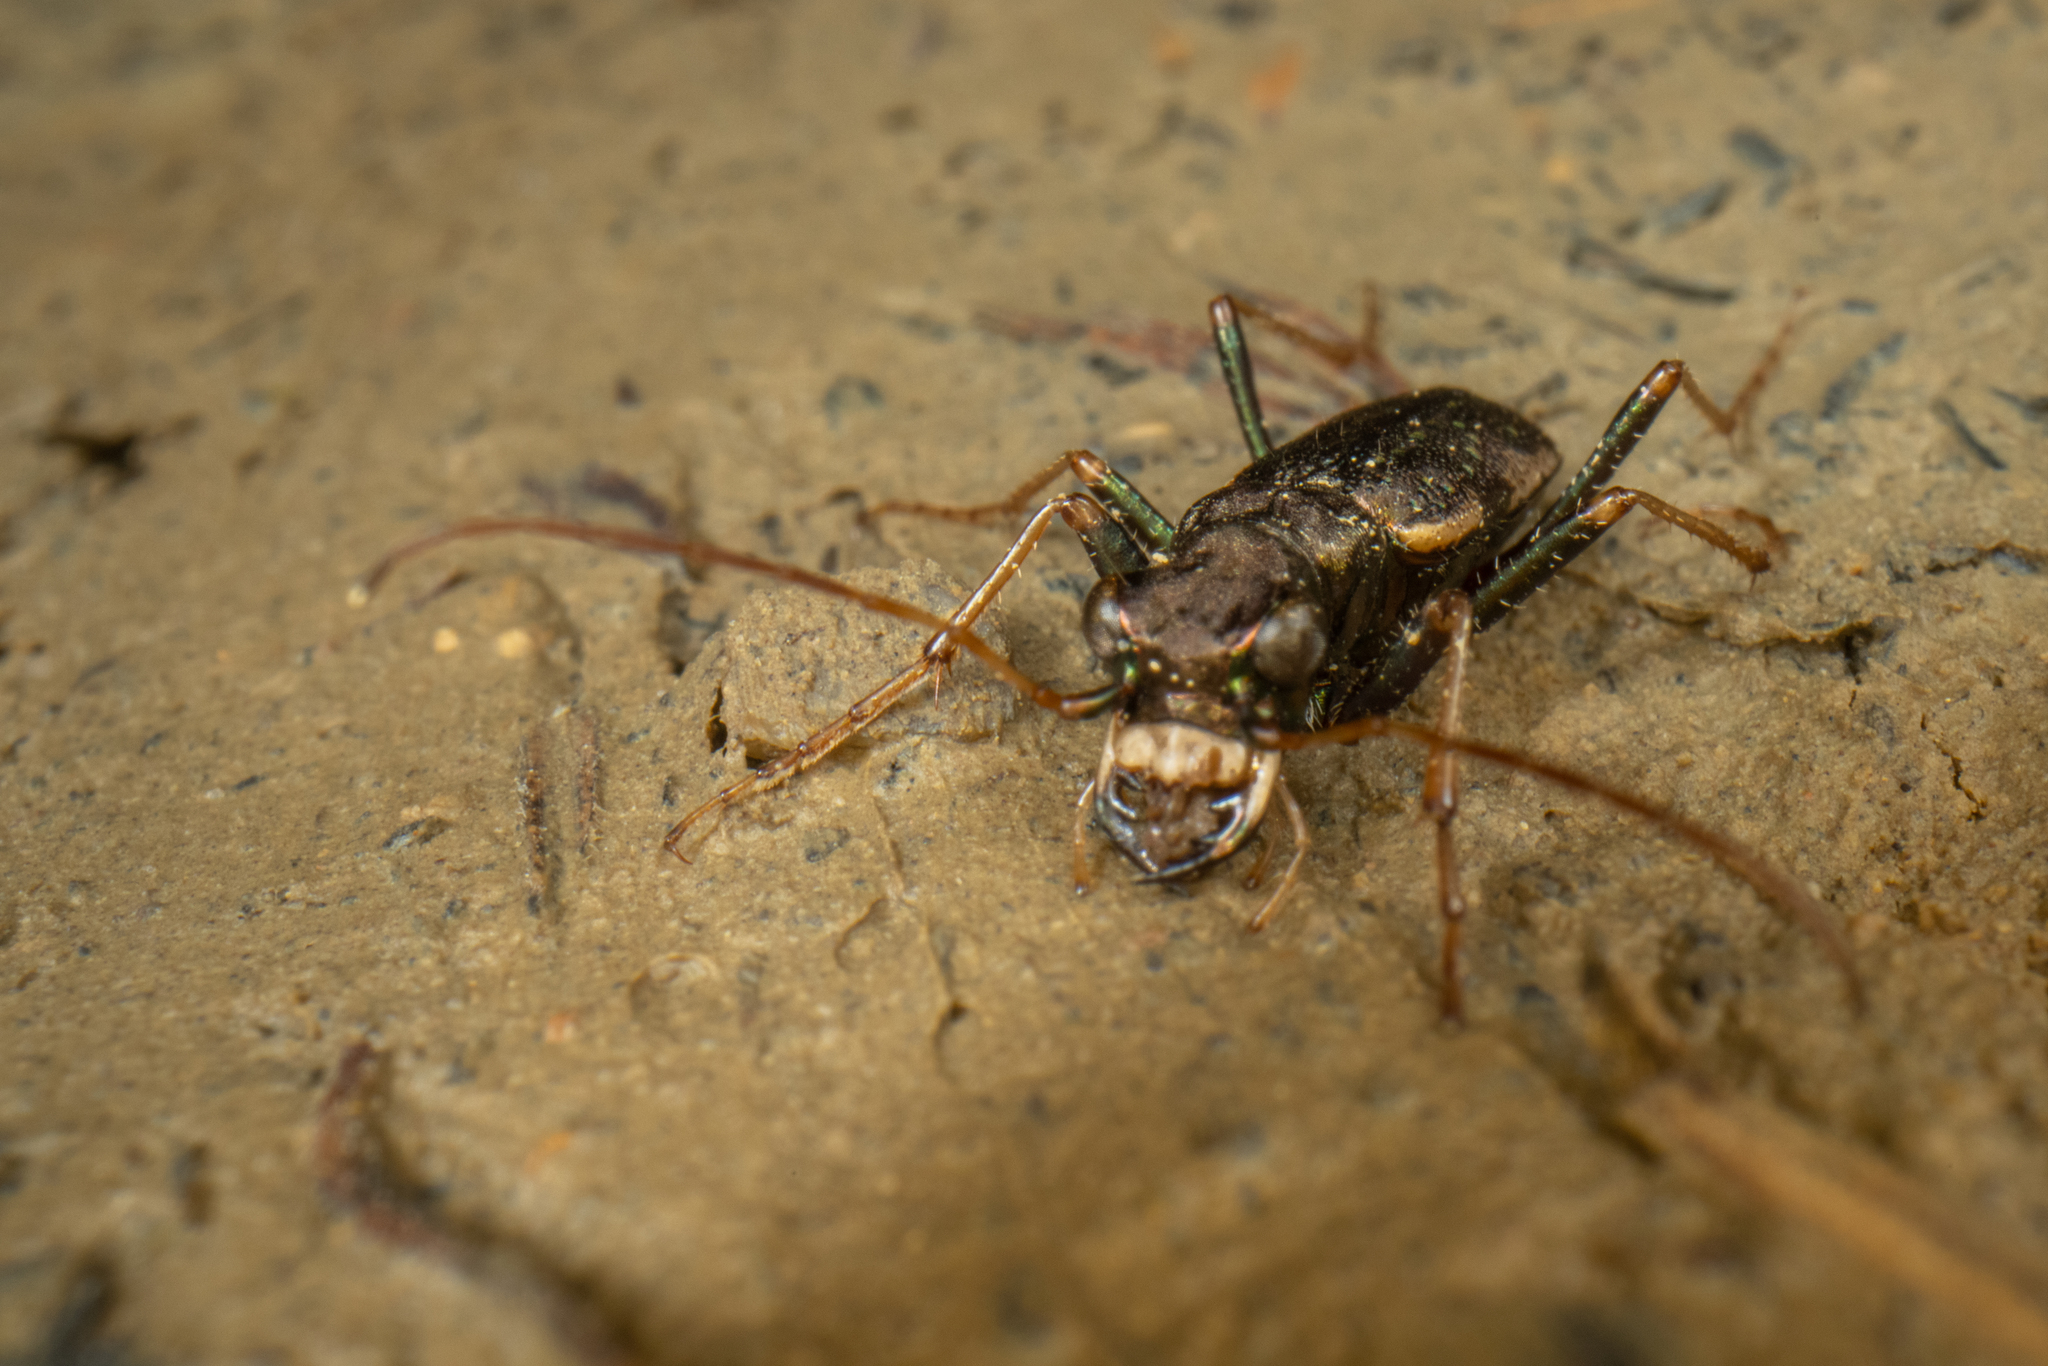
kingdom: Animalia
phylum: Arthropoda
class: Insecta
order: Coleoptera
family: Carabidae
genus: Neocicindela
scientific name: Neocicindela spilleri
